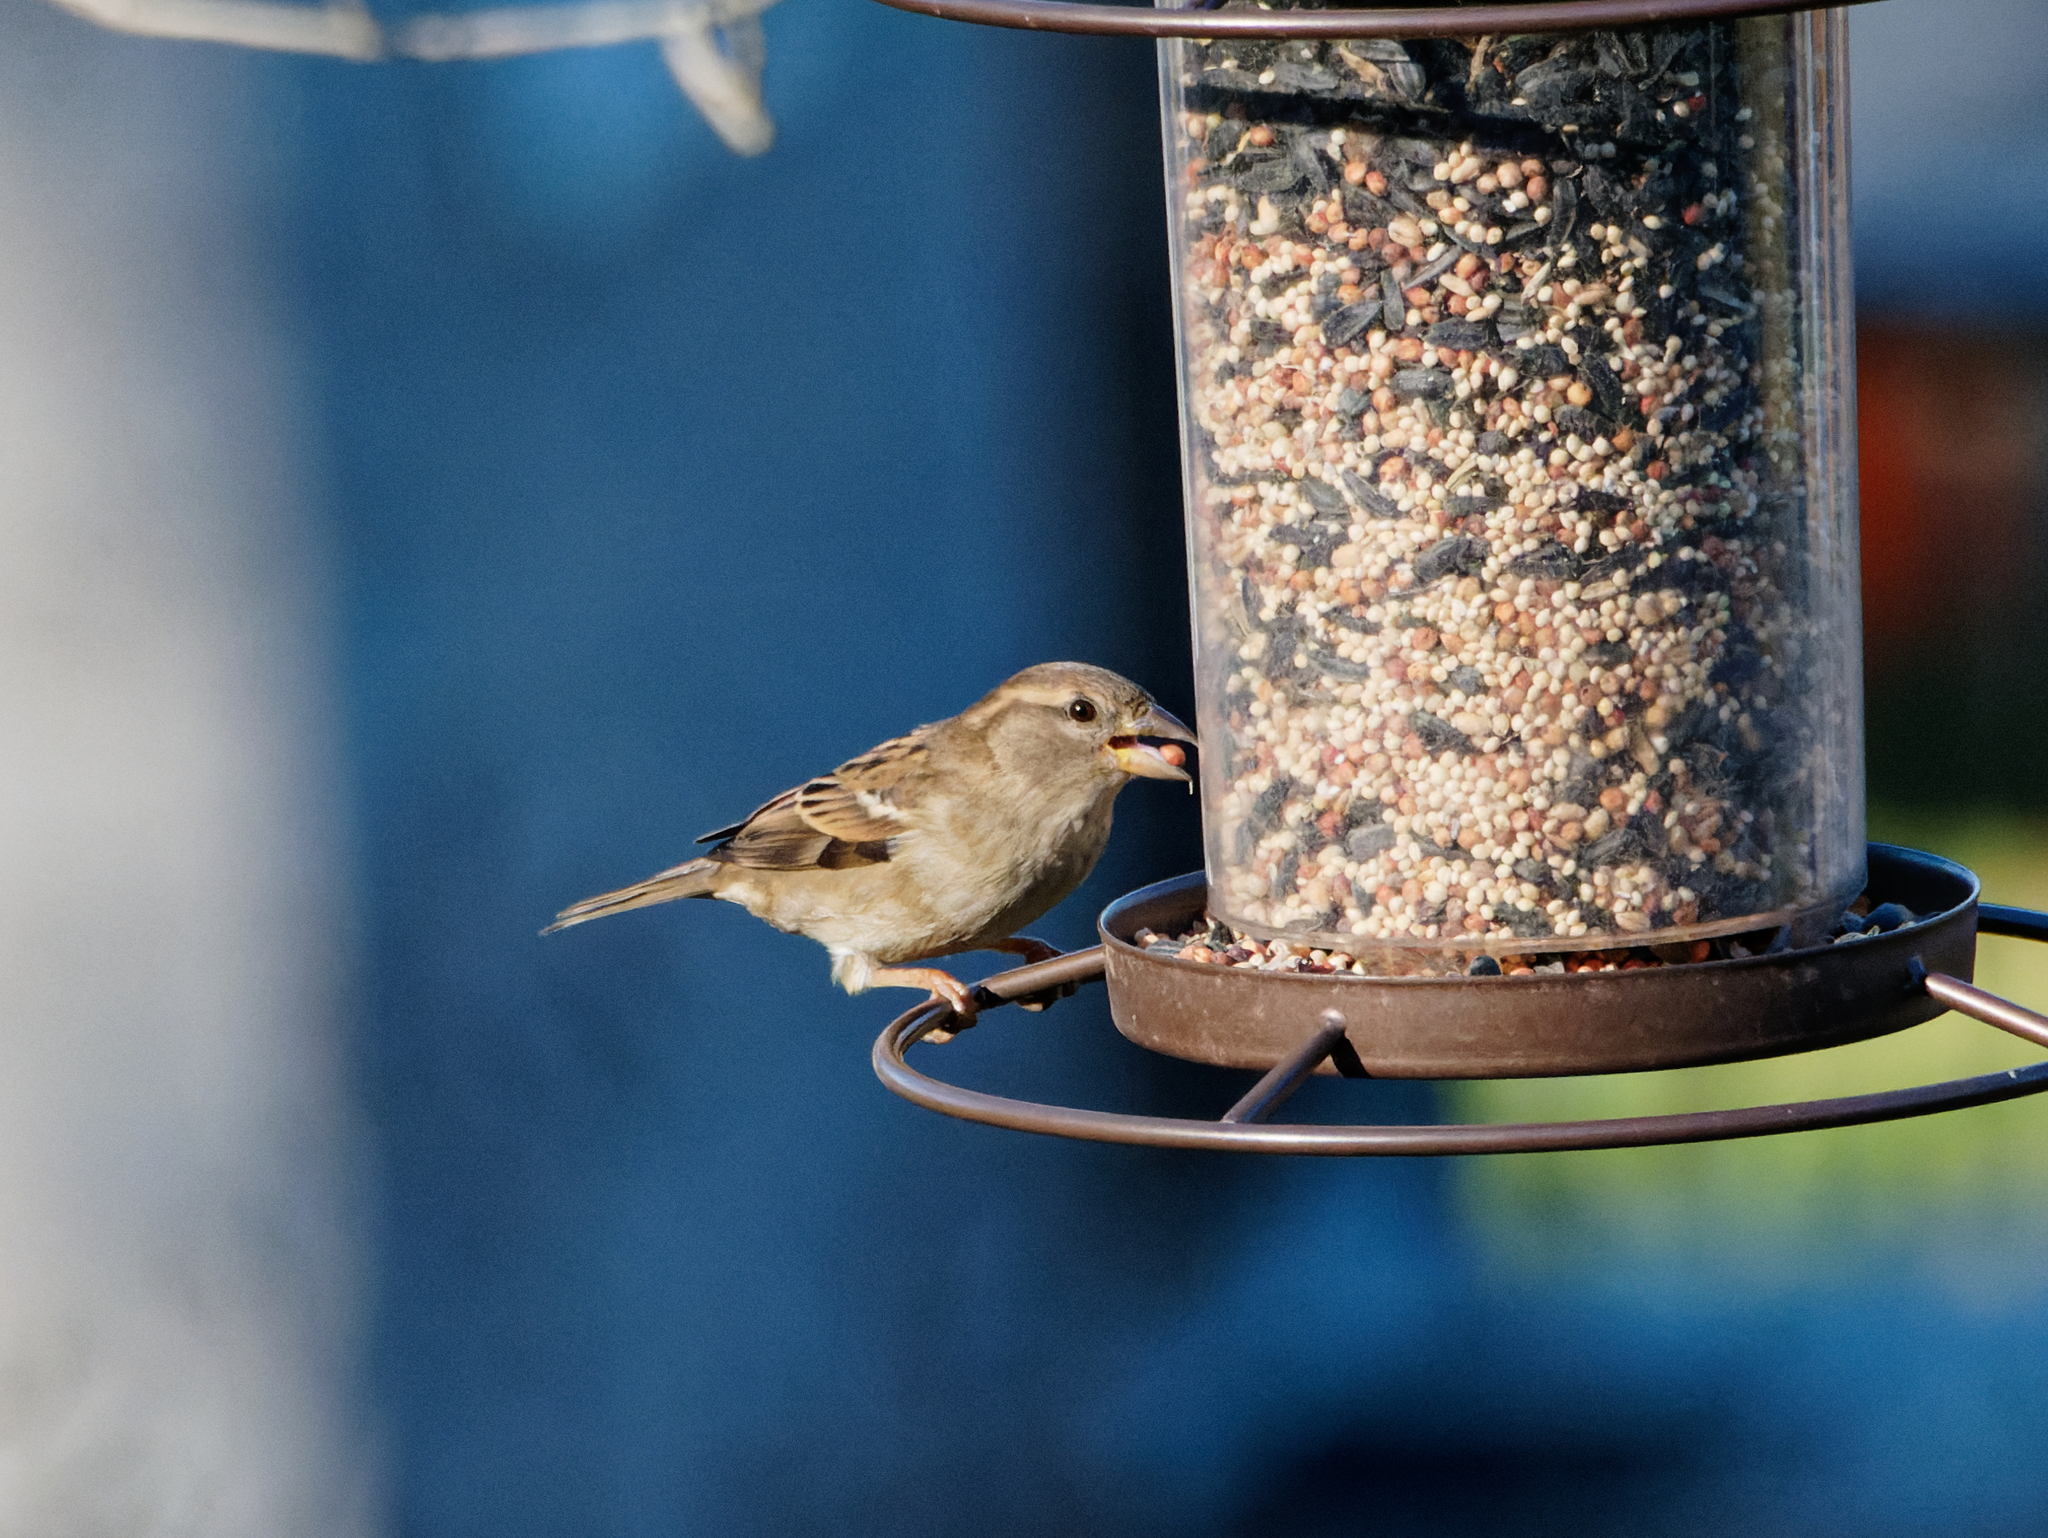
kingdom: Animalia
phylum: Chordata
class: Aves
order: Passeriformes
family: Passeridae
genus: Passer
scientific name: Passer domesticus
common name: House sparrow
